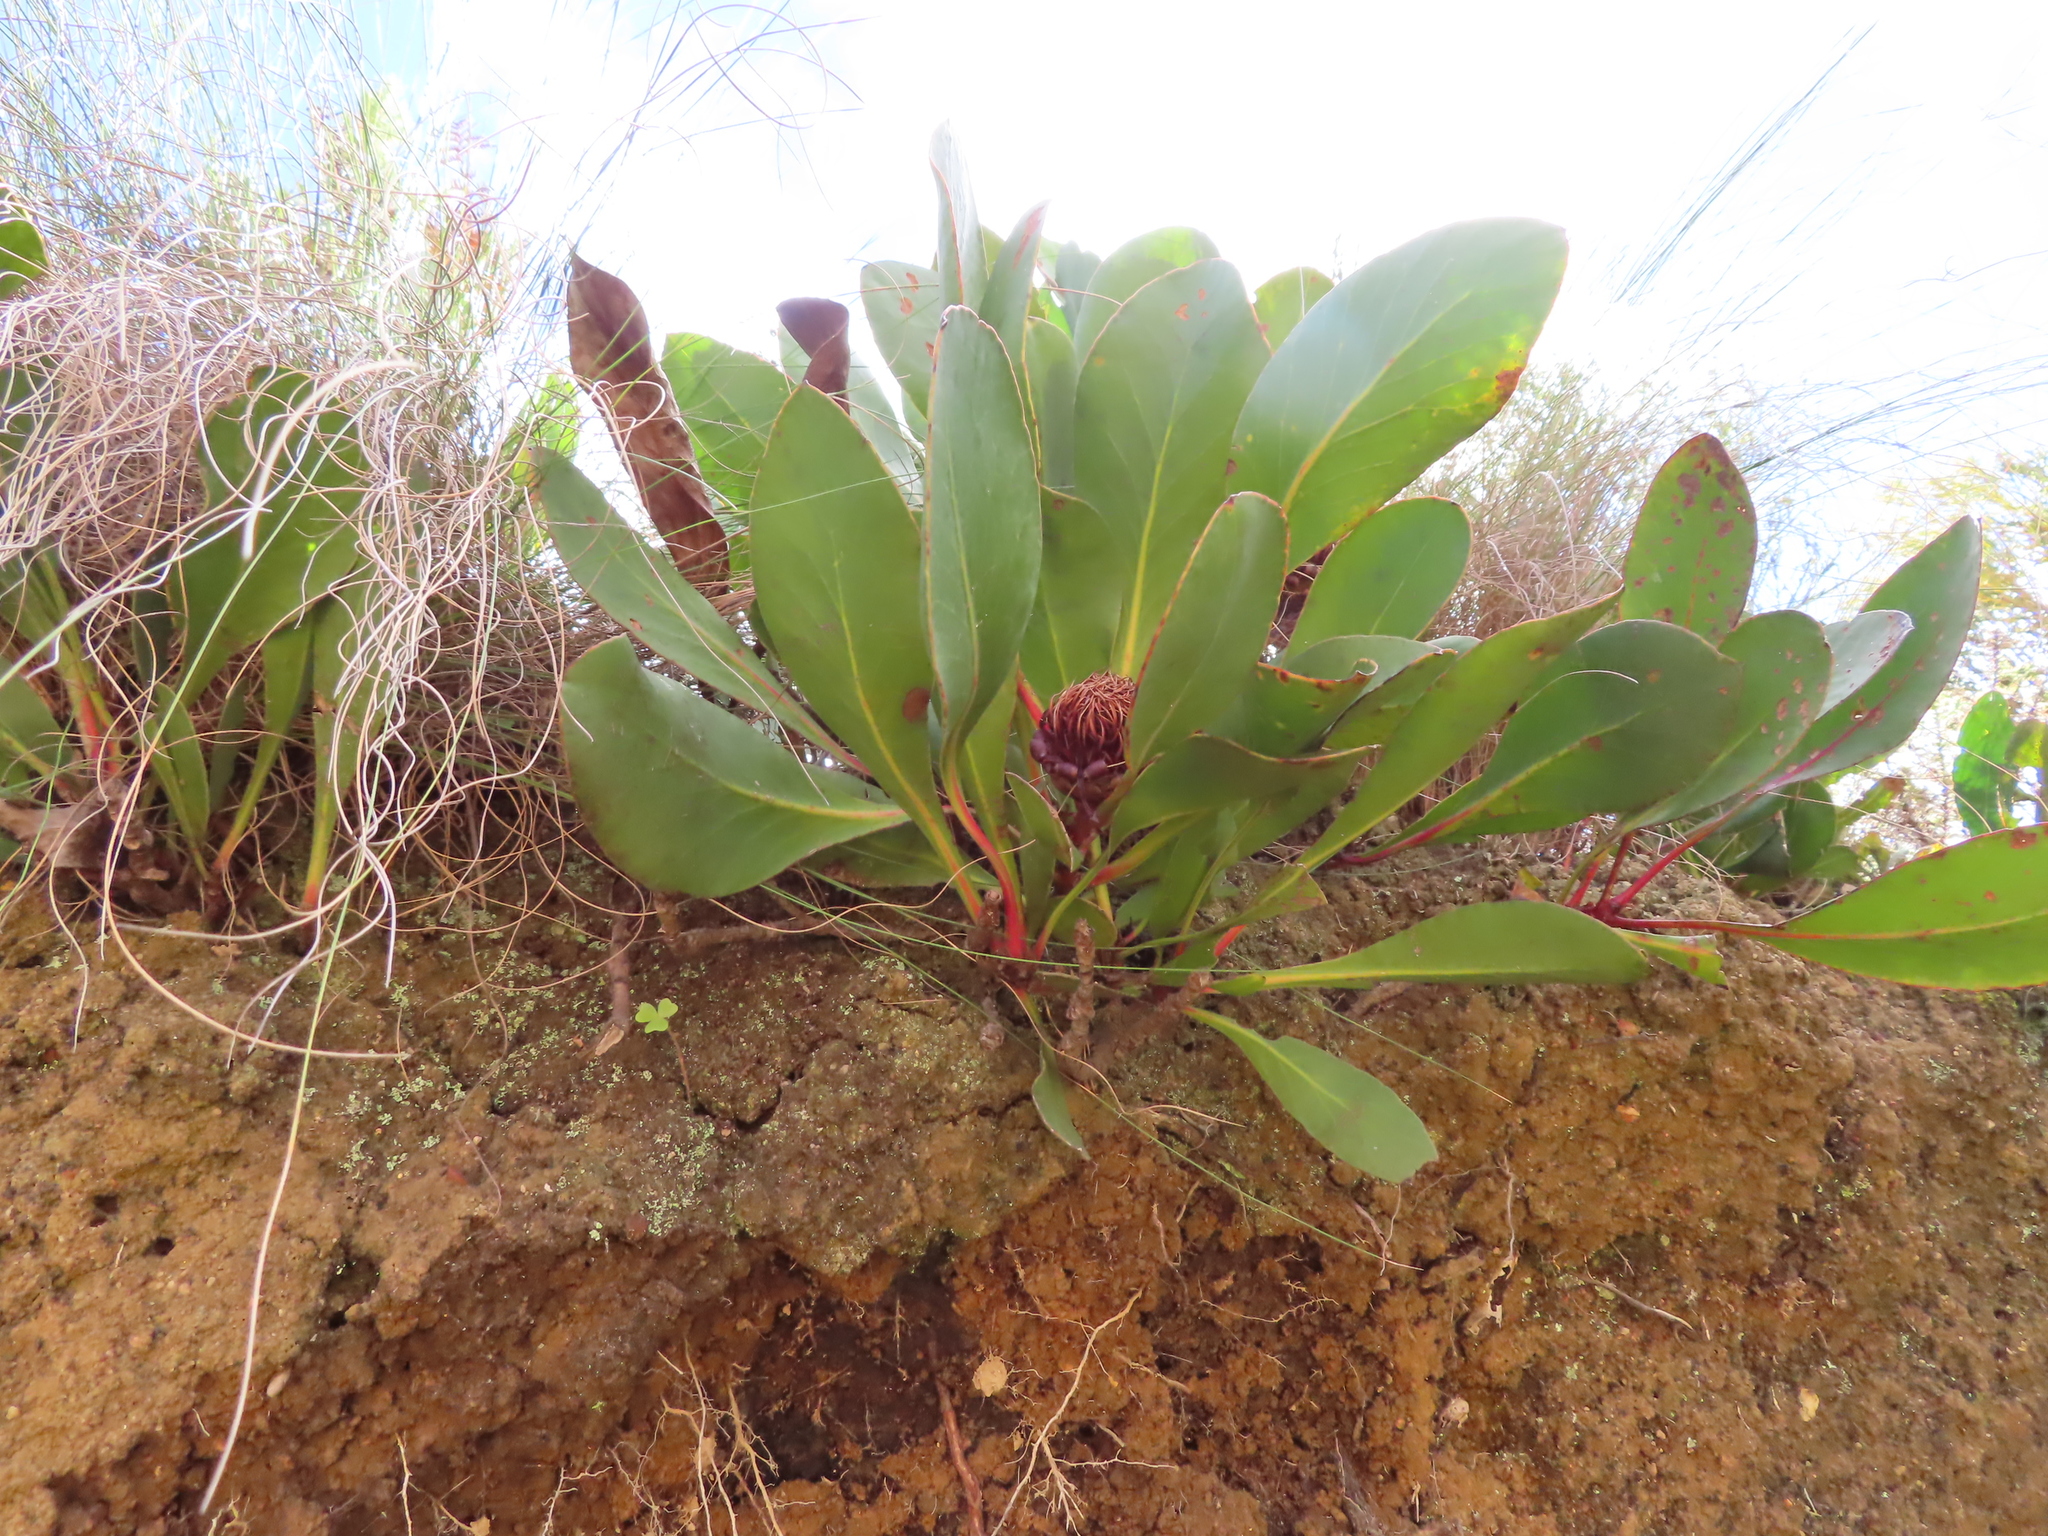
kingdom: Plantae
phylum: Tracheophyta
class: Magnoliopsida
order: Proteales
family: Proteaceae
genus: Protea
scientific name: Protea acaulos
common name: Common ground sugarbush
